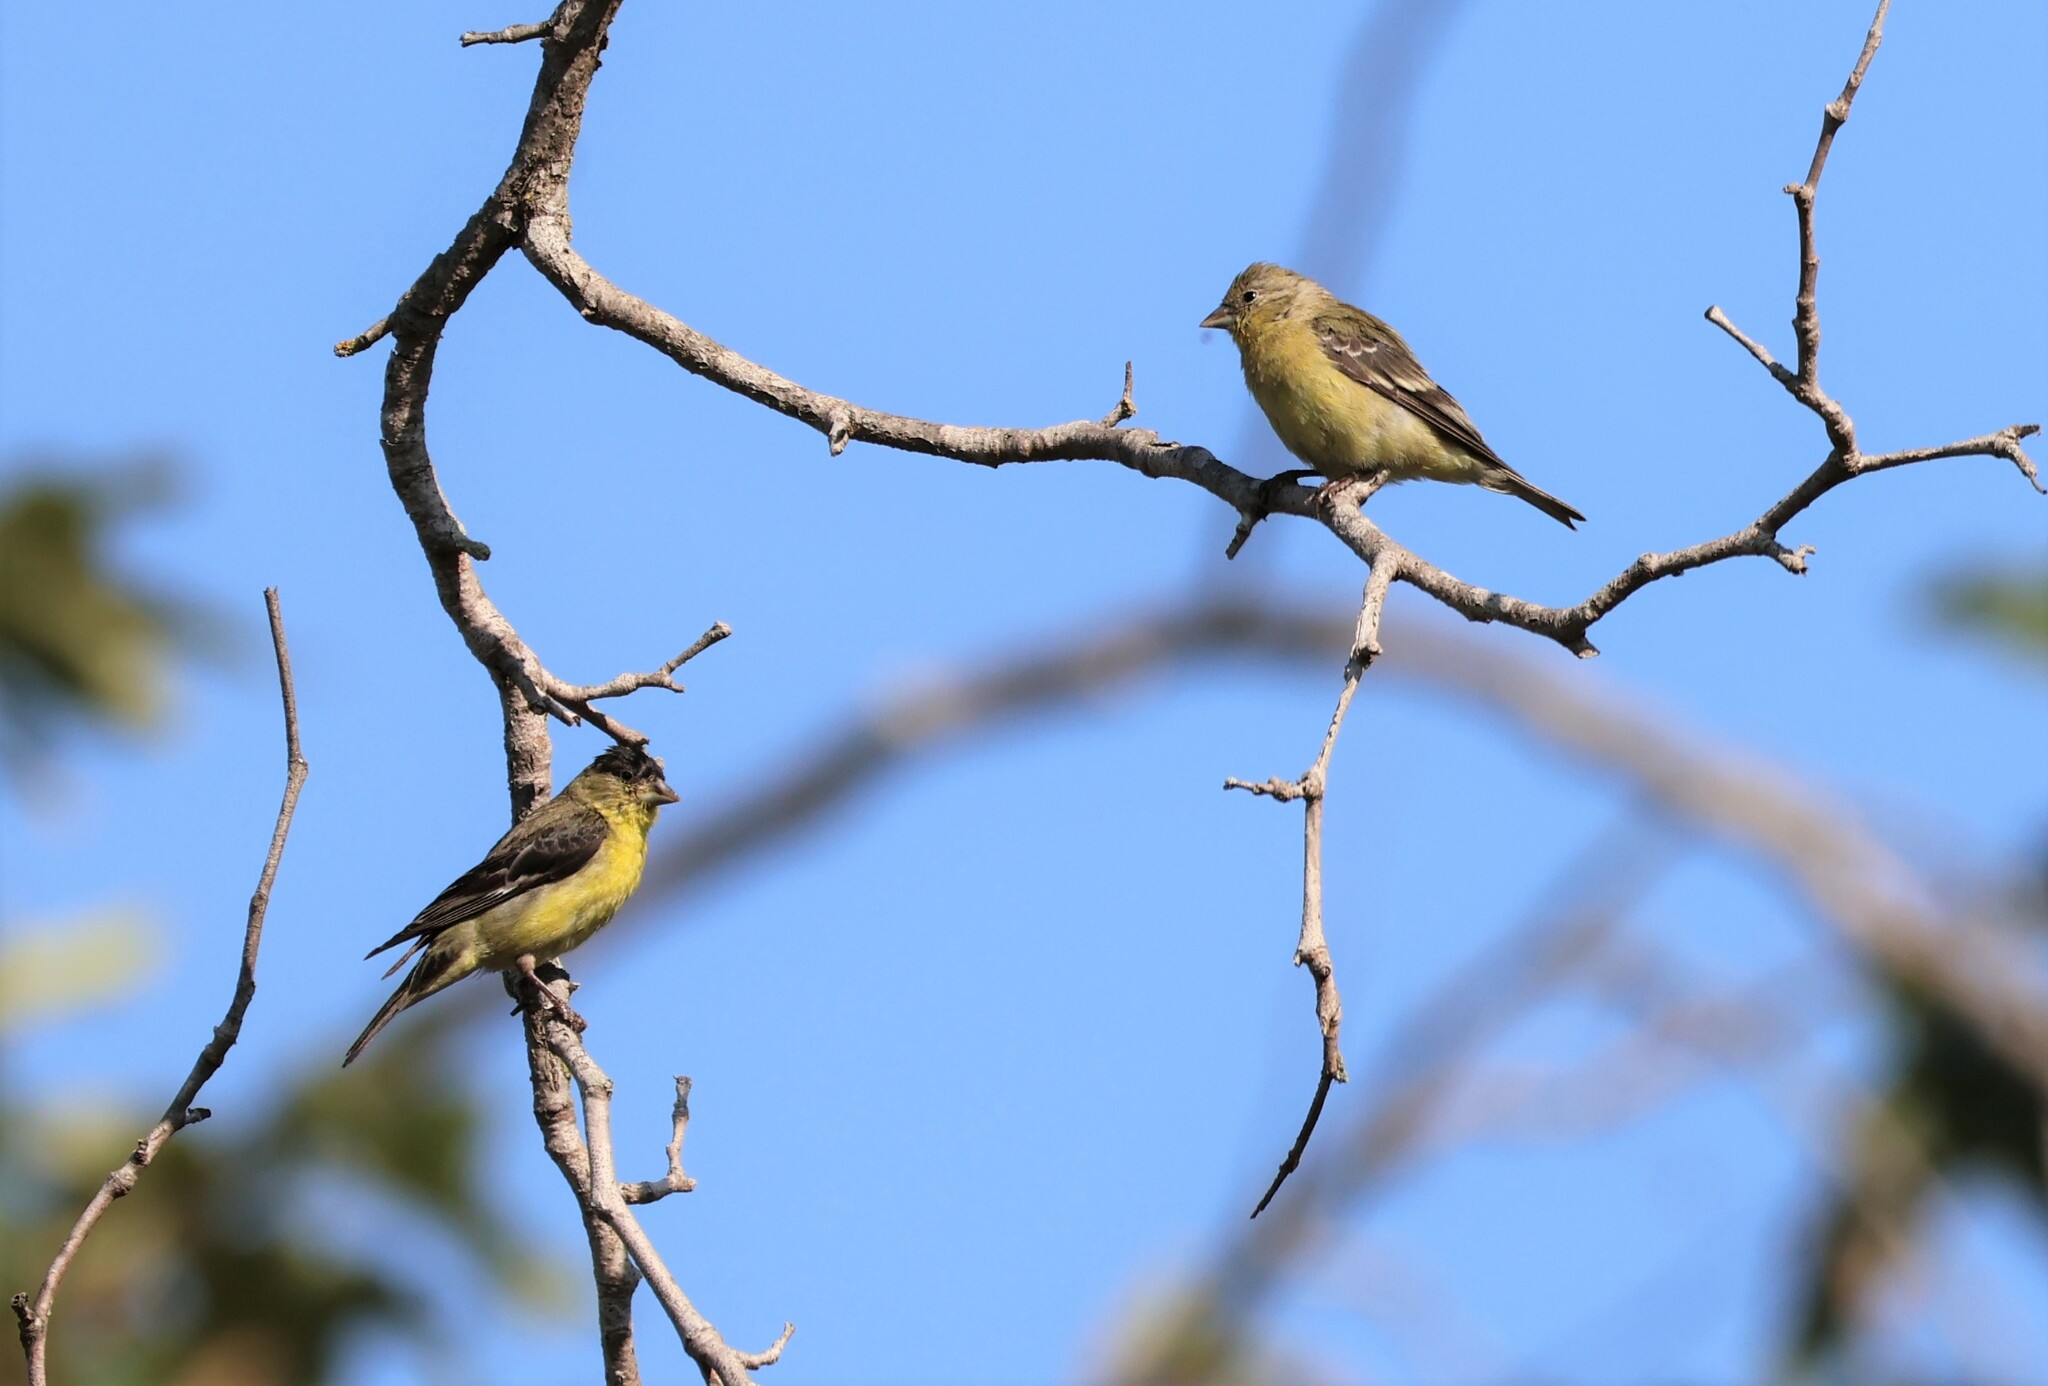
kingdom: Animalia
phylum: Chordata
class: Aves
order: Passeriformes
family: Fringillidae
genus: Spinus
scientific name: Spinus psaltria
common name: Lesser goldfinch
